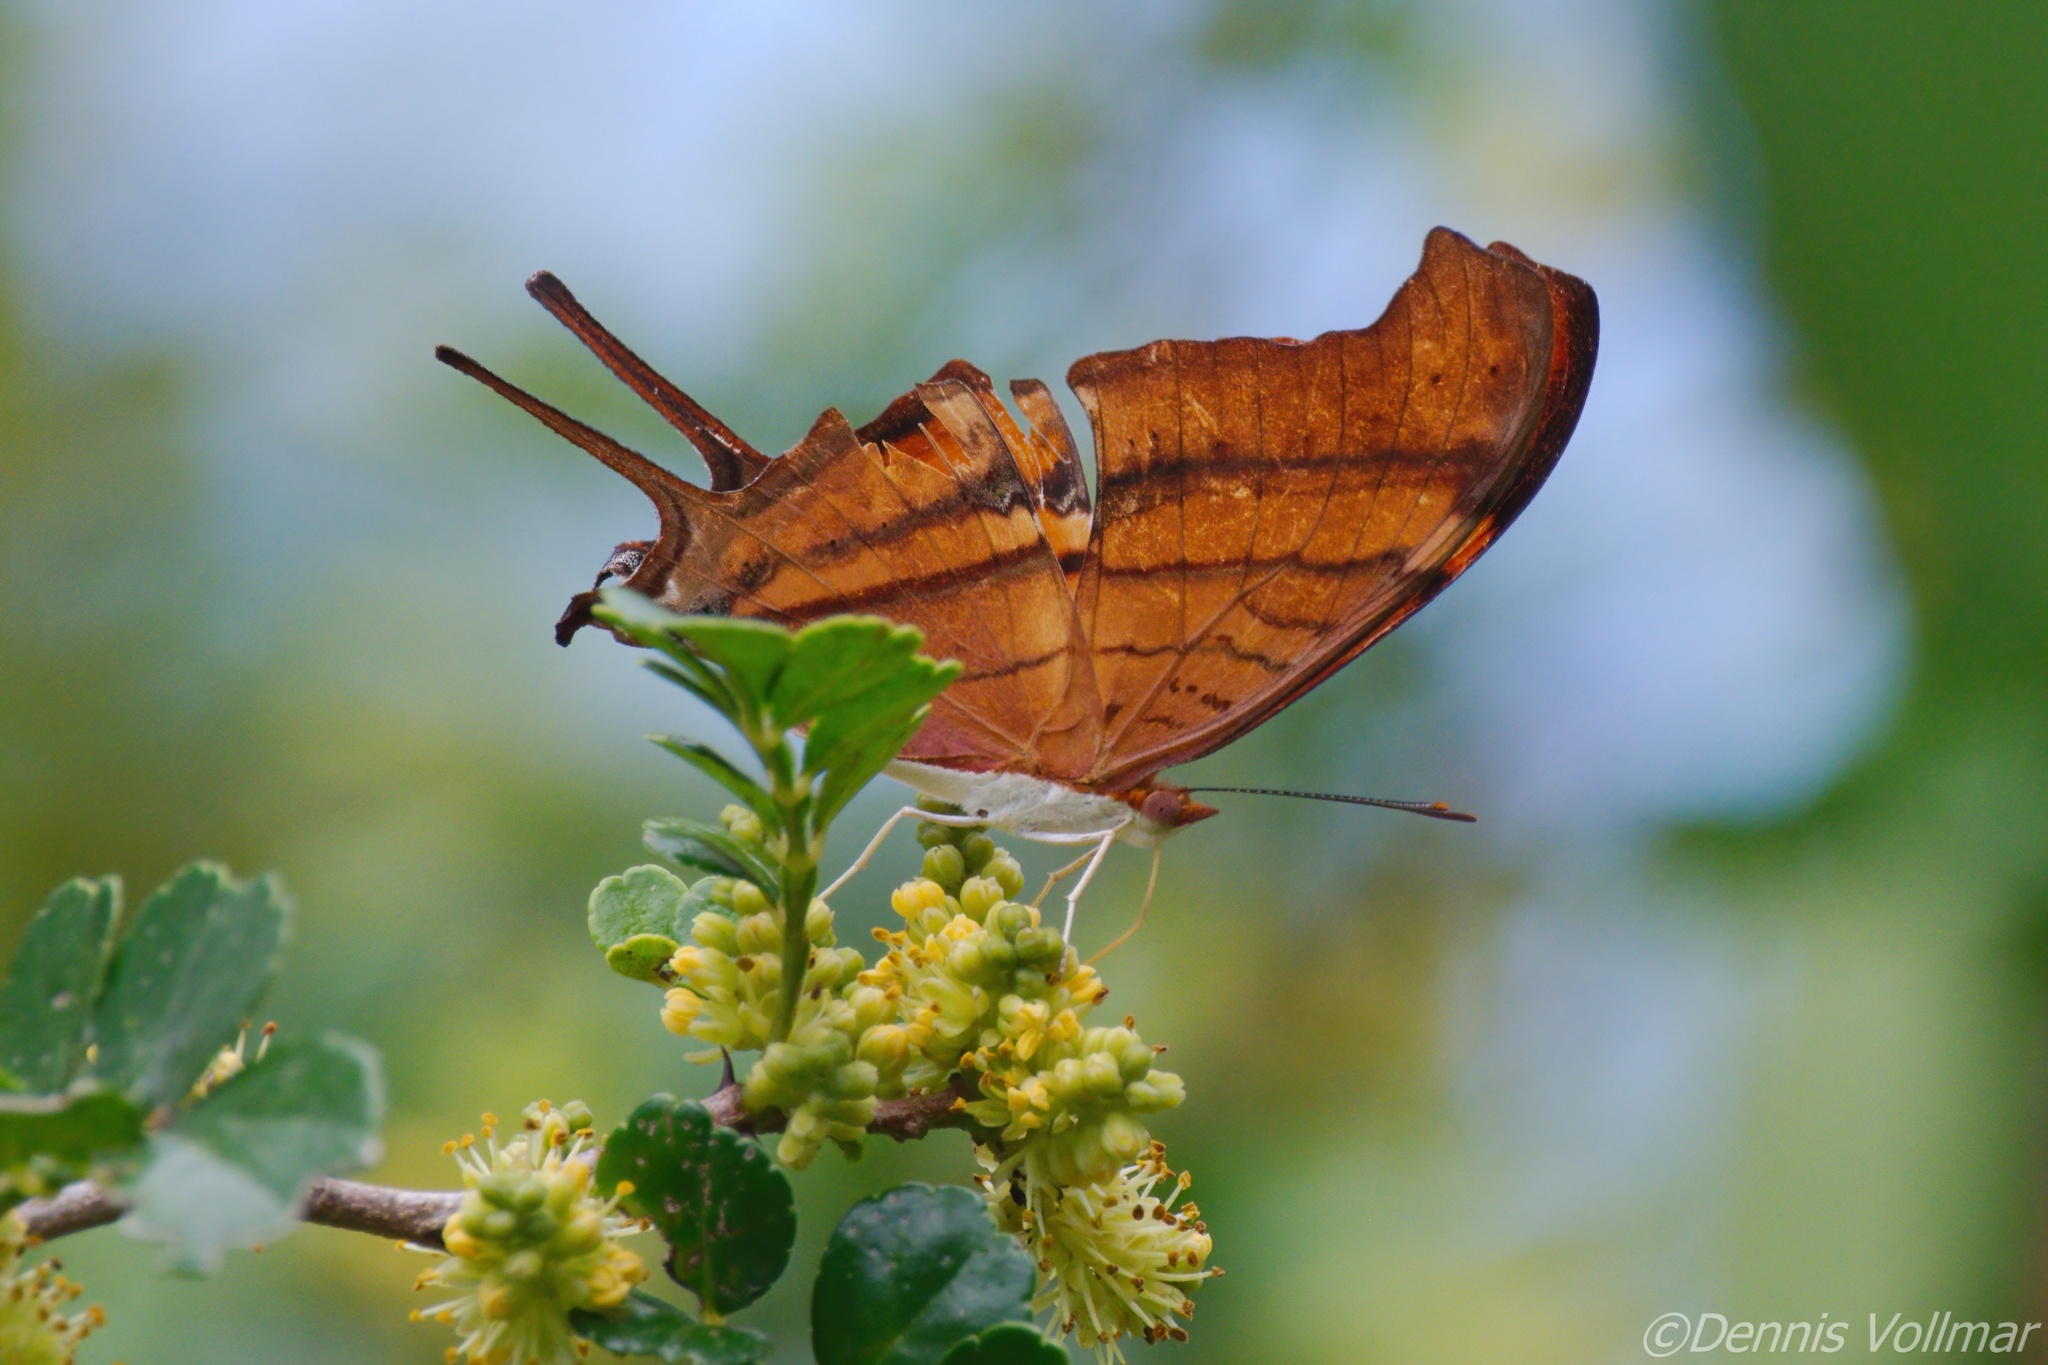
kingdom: Animalia
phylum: Arthropoda
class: Insecta
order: Lepidoptera
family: Nymphalidae
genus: Marpesia
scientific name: Marpesia petreus
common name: Red dagger wing
